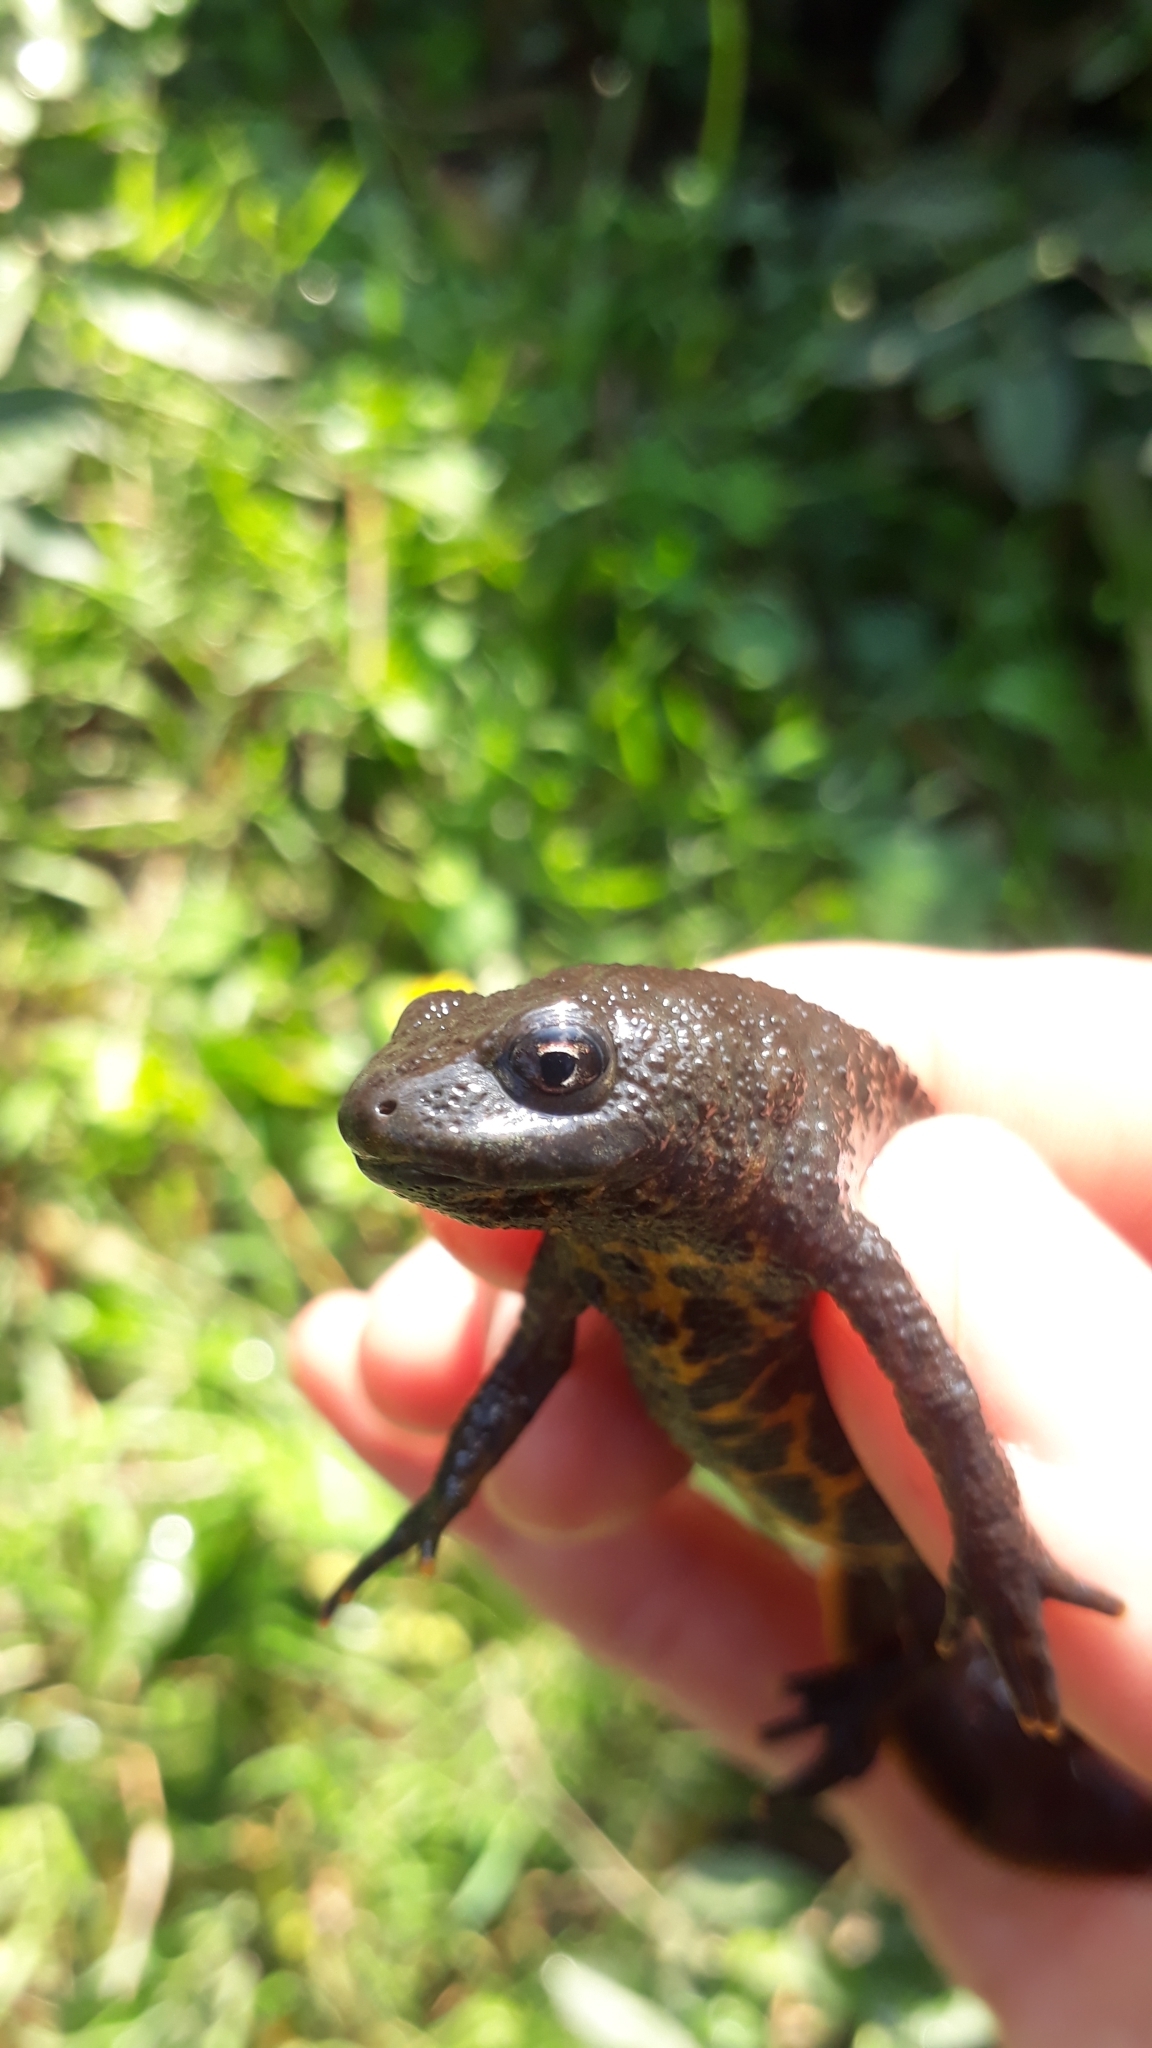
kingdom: Animalia
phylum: Chordata
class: Amphibia
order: Caudata
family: Salamandridae
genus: Triturus
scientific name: Triturus karelinii
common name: Southern crested newt
